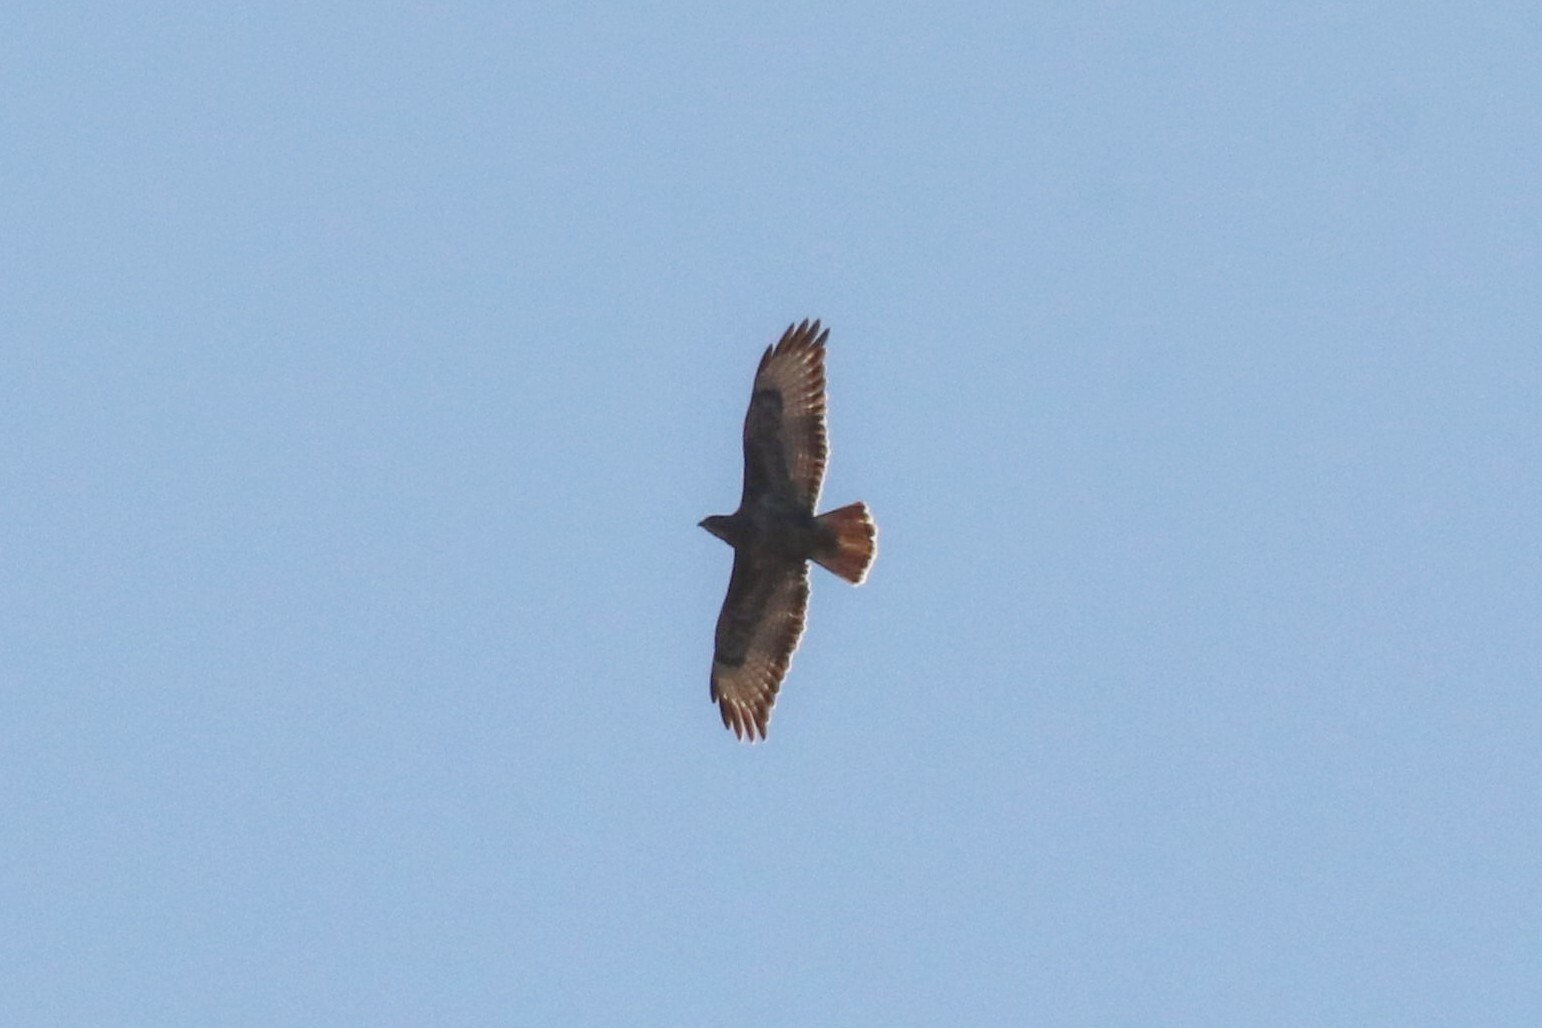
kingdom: Animalia
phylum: Chordata
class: Aves
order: Accipitriformes
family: Accipitridae
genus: Buteo
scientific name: Buteo buteo
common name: Common buzzard
